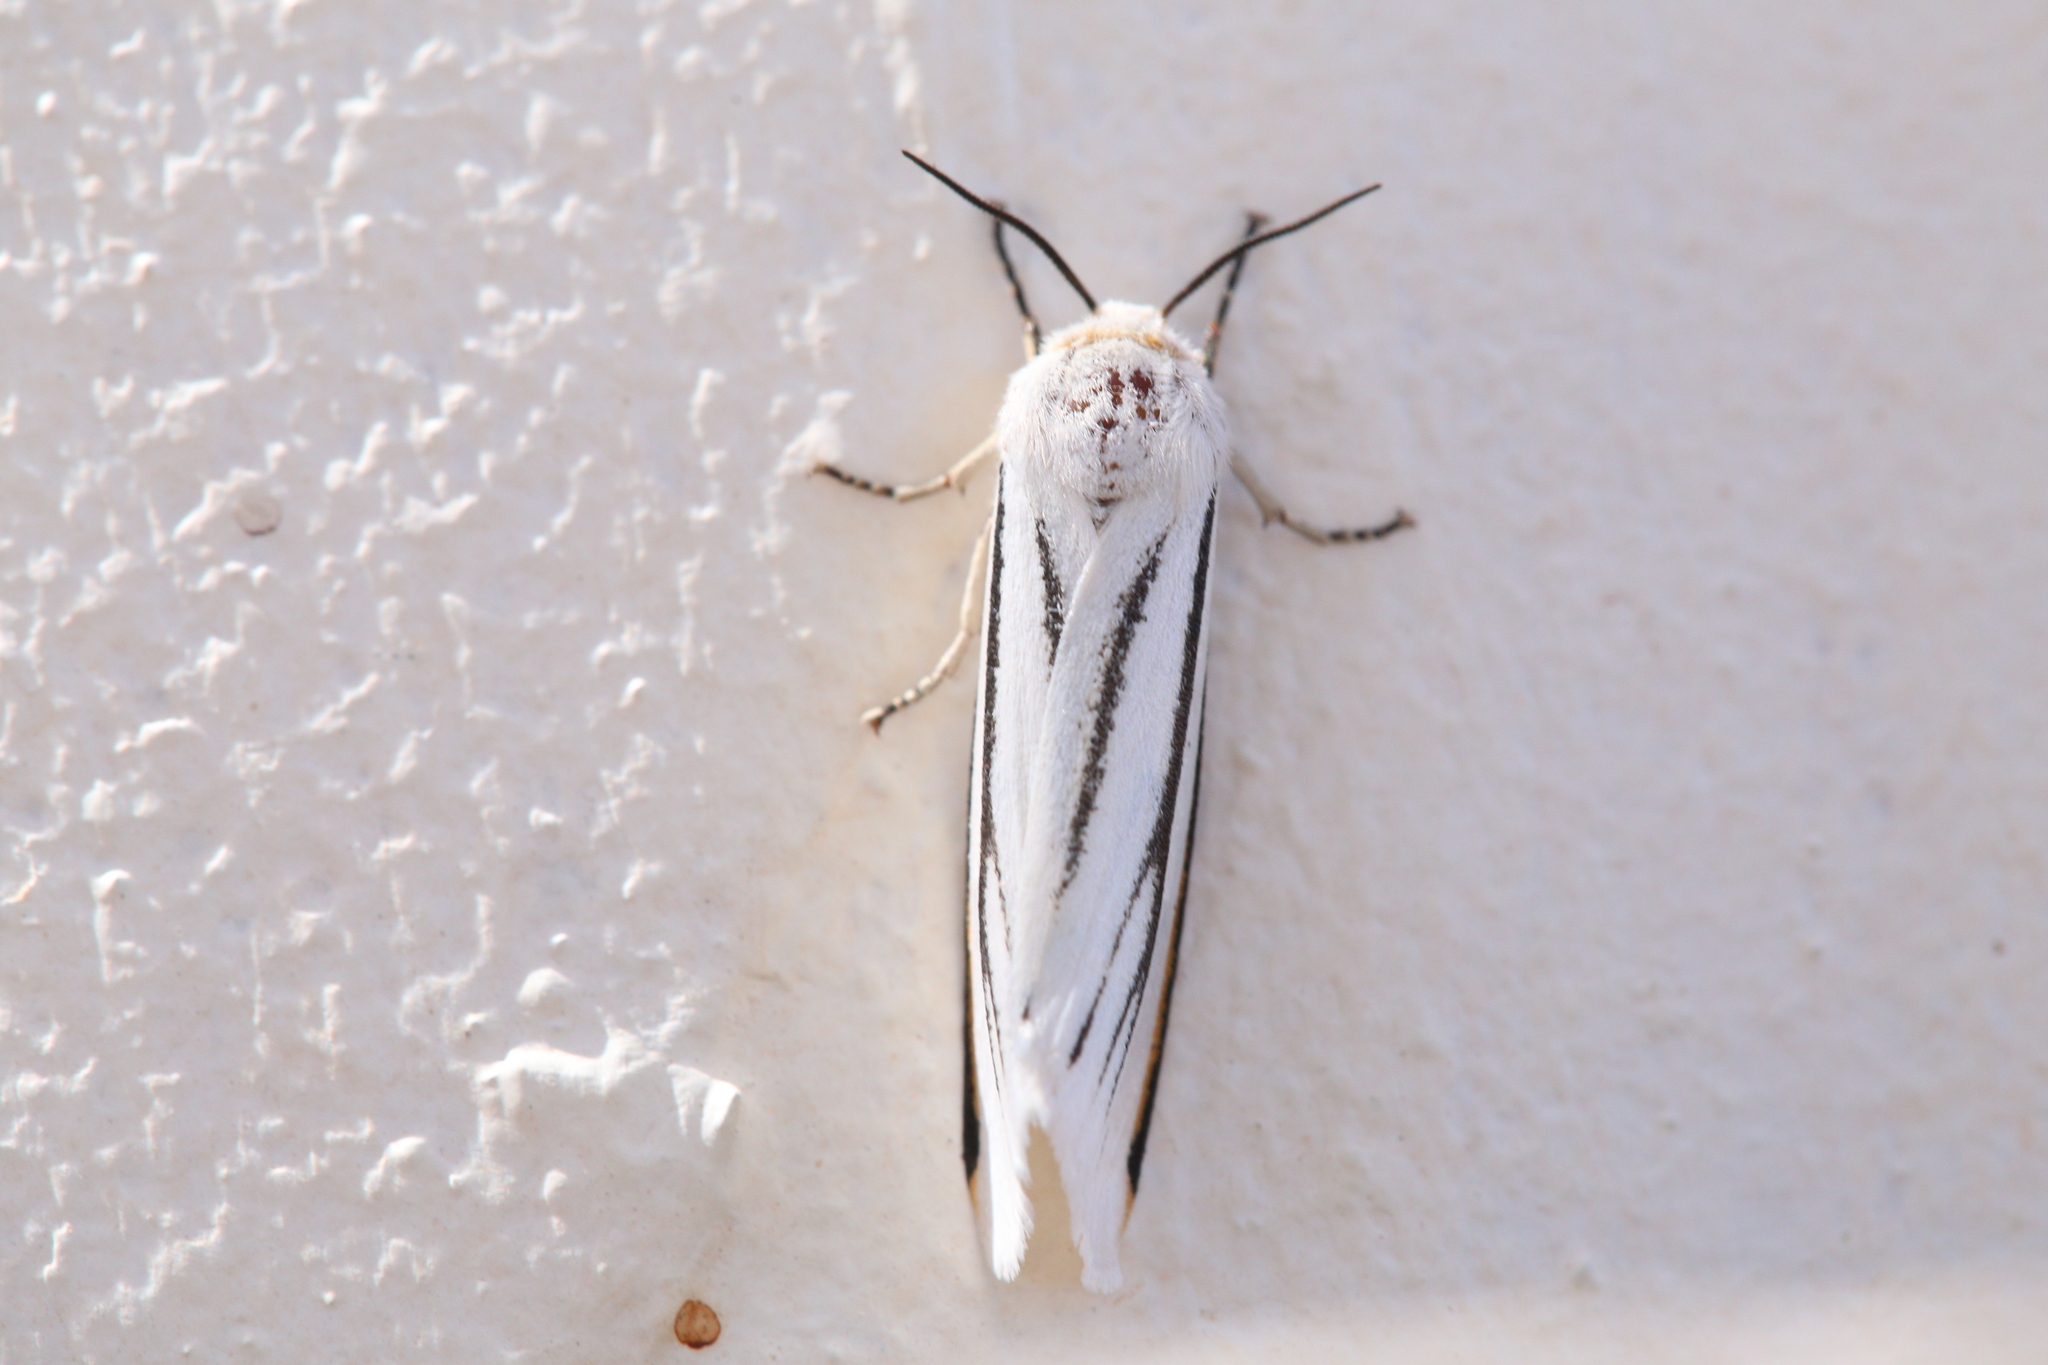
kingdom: Animalia
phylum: Arthropoda
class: Insecta
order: Lepidoptera
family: Erebidae
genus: Aloa
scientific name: Aloa marginata
